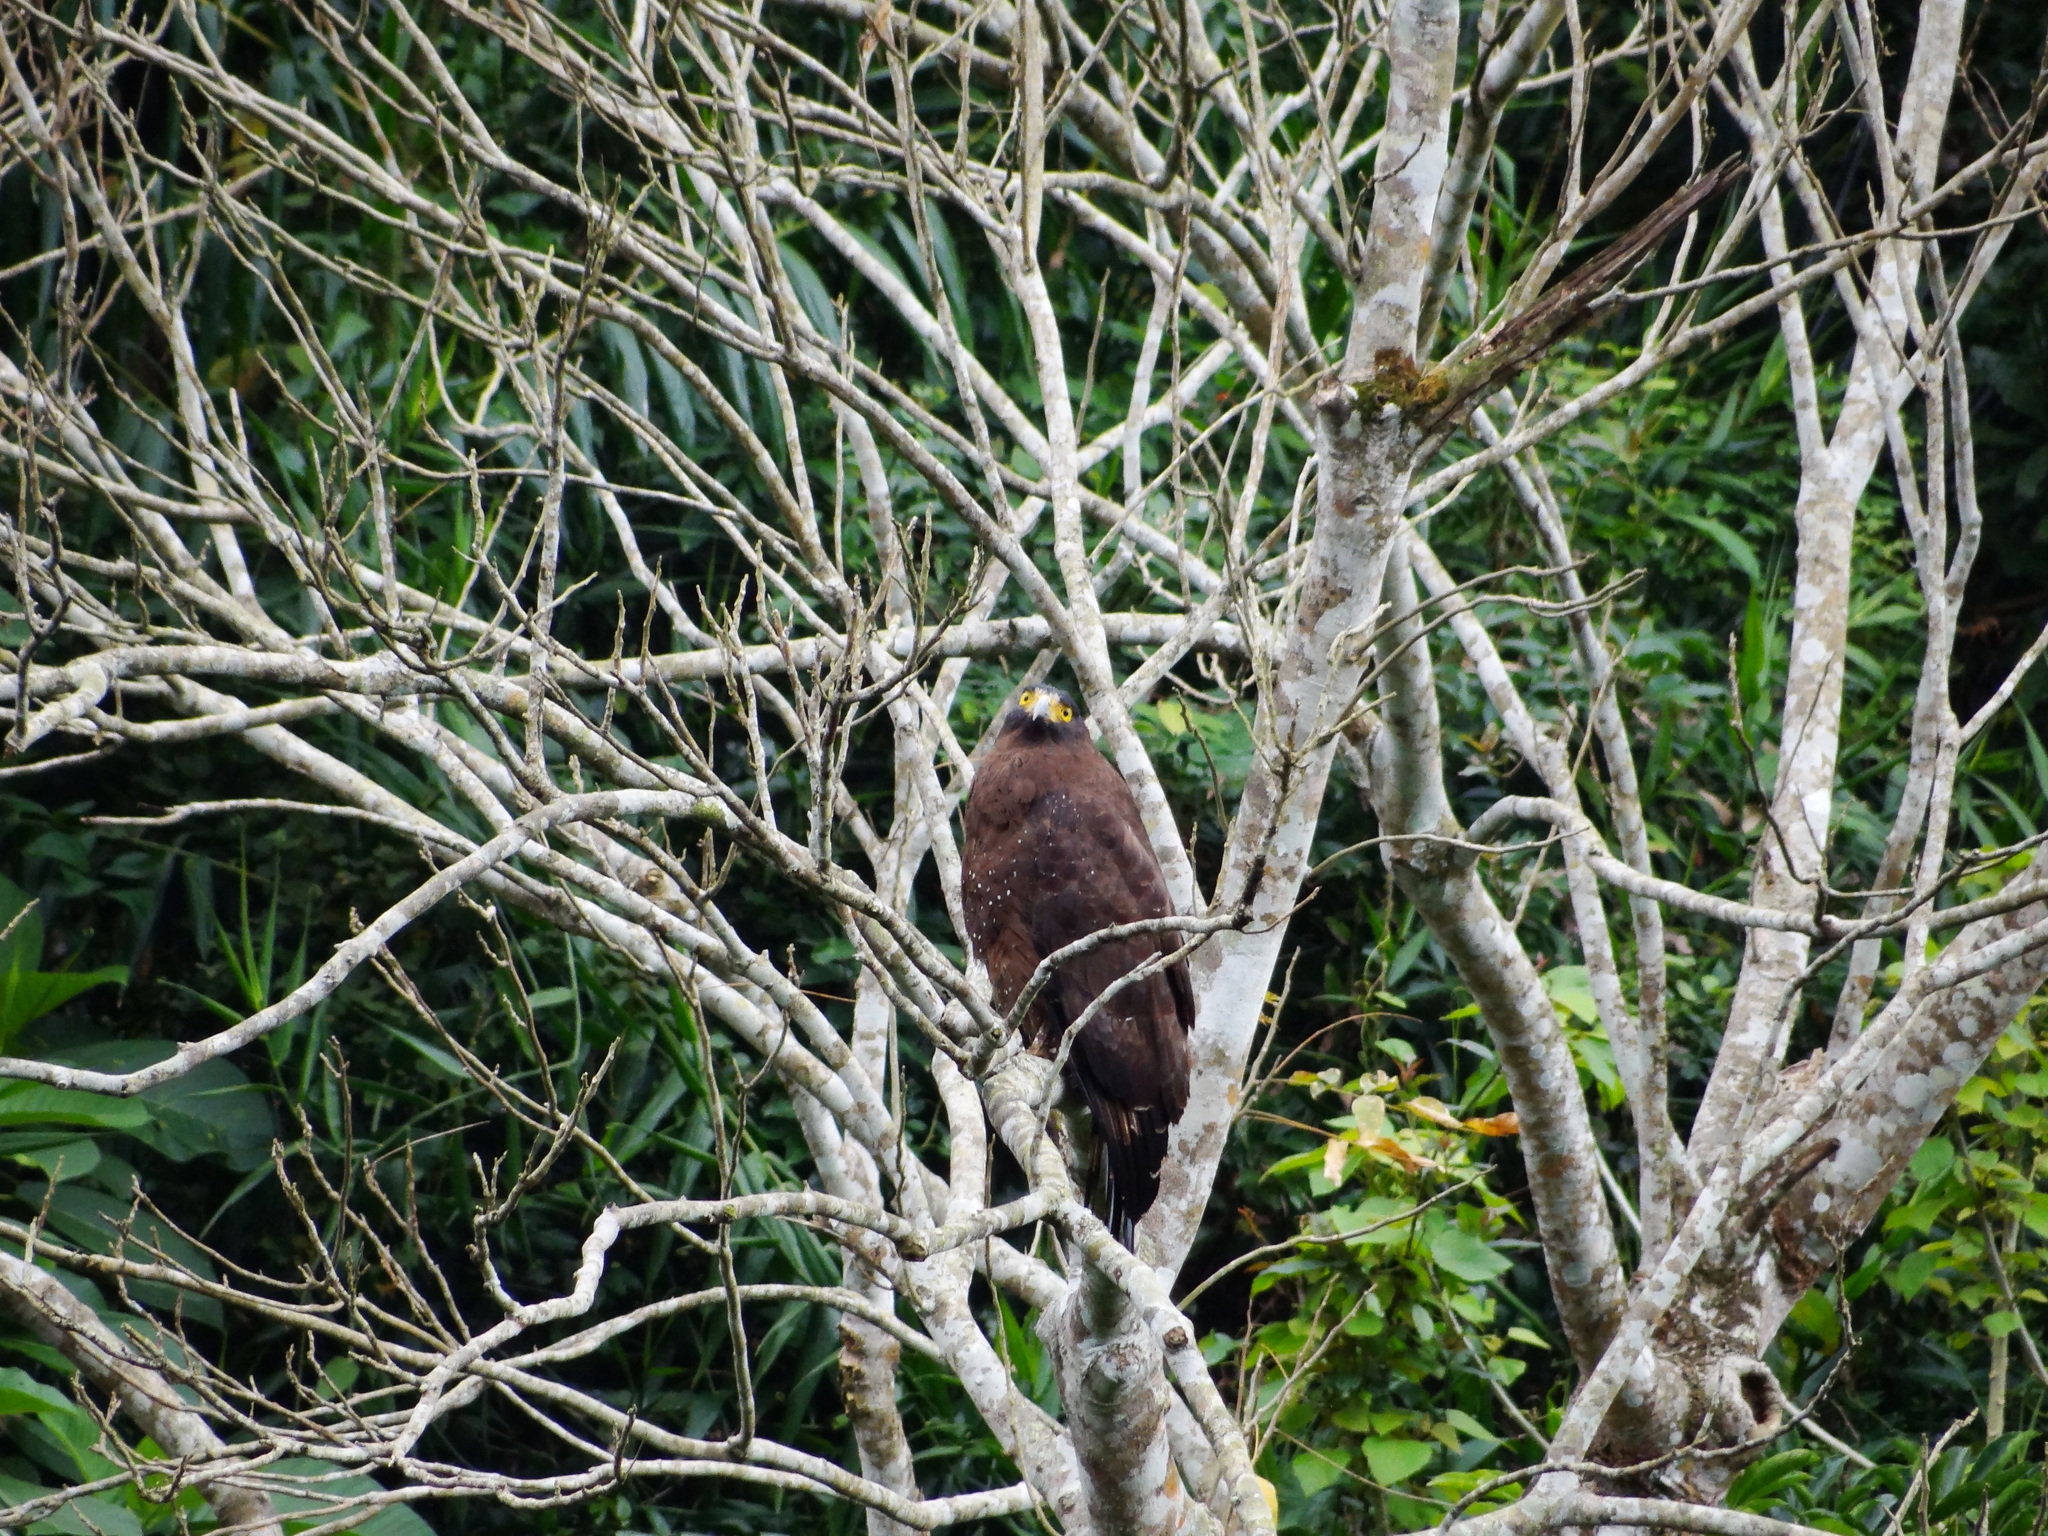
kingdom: Animalia
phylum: Chordata
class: Aves
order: Accipitriformes
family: Accipitridae
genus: Spilornis
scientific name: Spilornis cheela
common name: Crested serpent eagle
